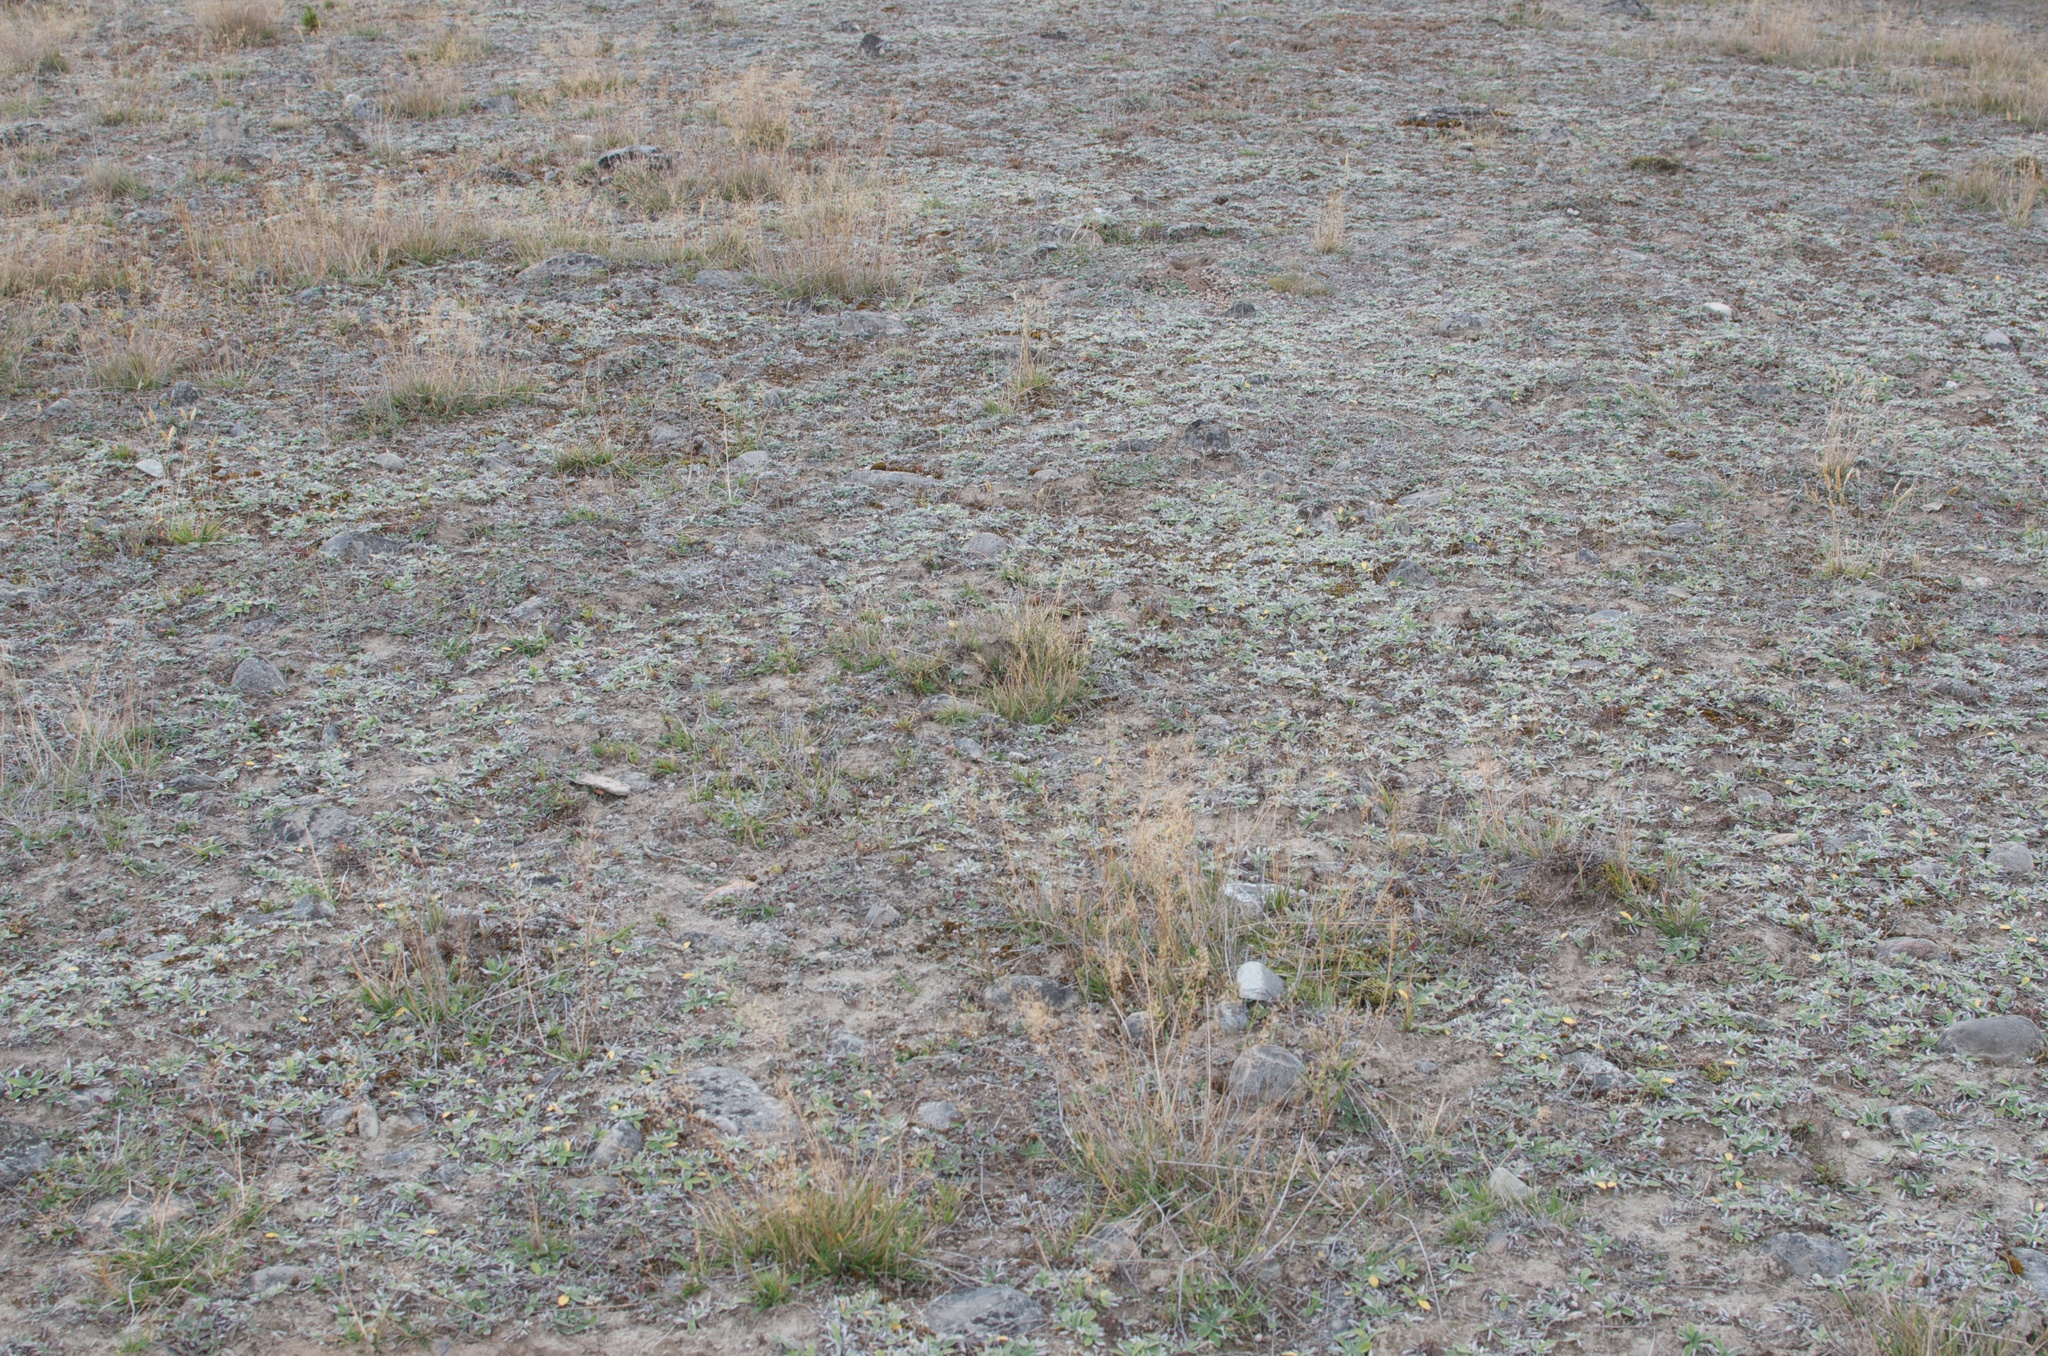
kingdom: Plantae
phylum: Tracheophyta
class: Magnoliopsida
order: Asterales
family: Asteraceae
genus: Pilosella
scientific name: Pilosella officinarum
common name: Mouse-ear hawkweed
